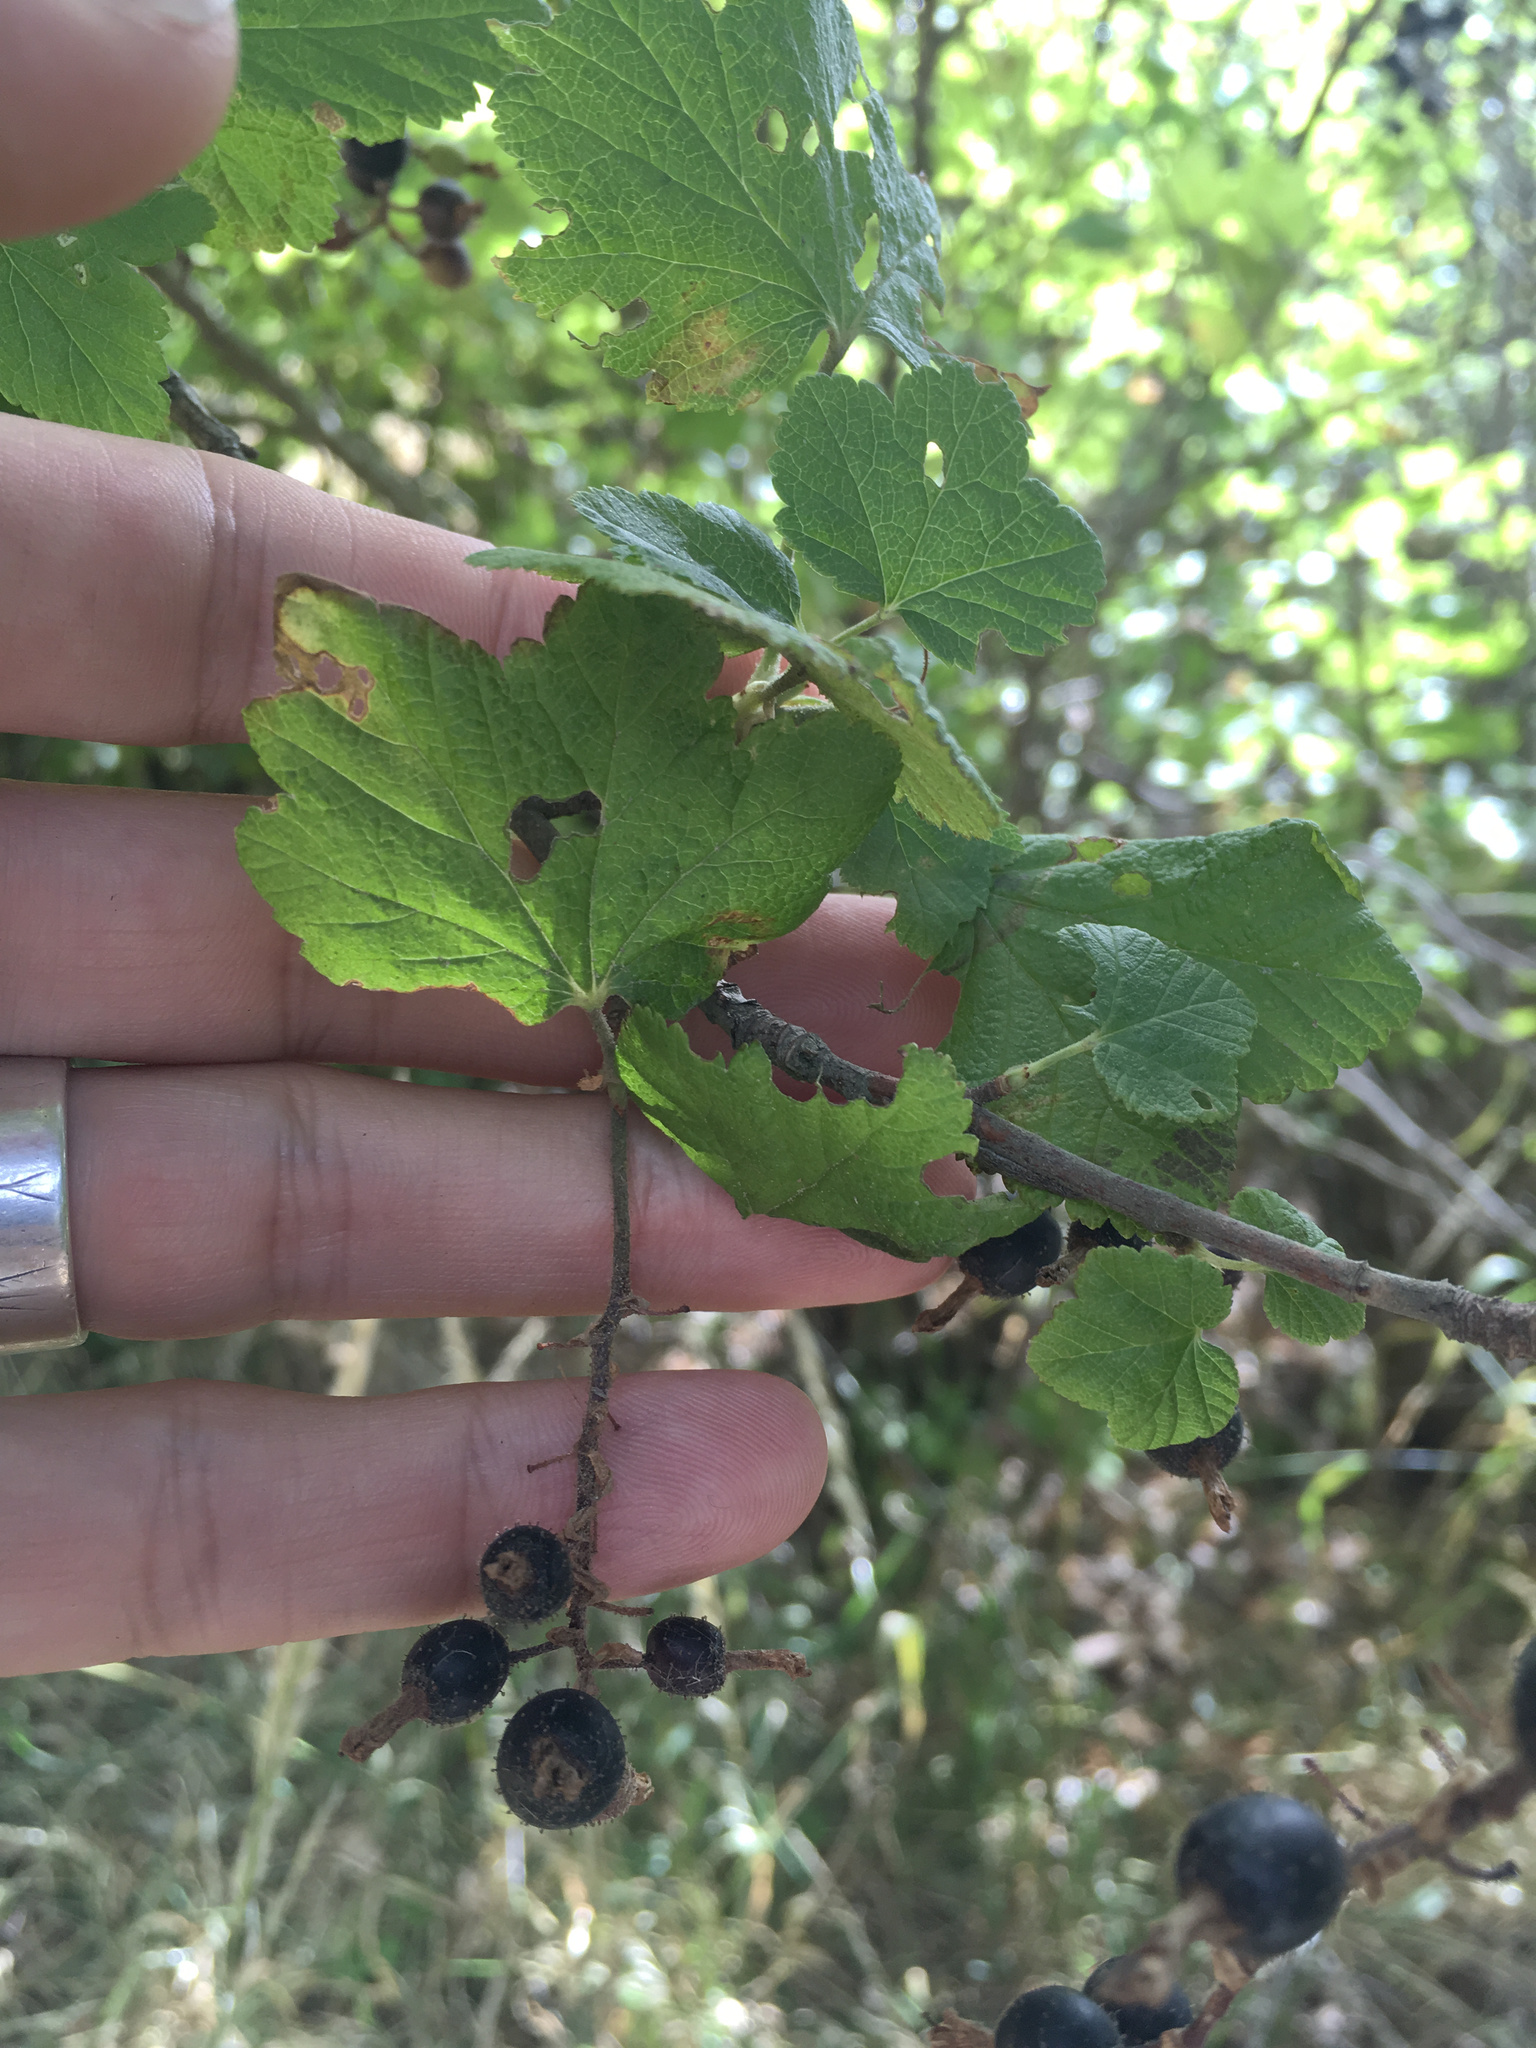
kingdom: Plantae
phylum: Tracheophyta
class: Magnoliopsida
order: Saxifragales
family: Grossulariaceae
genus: Ribes
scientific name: Ribes sanguineum
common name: Flowering currant
